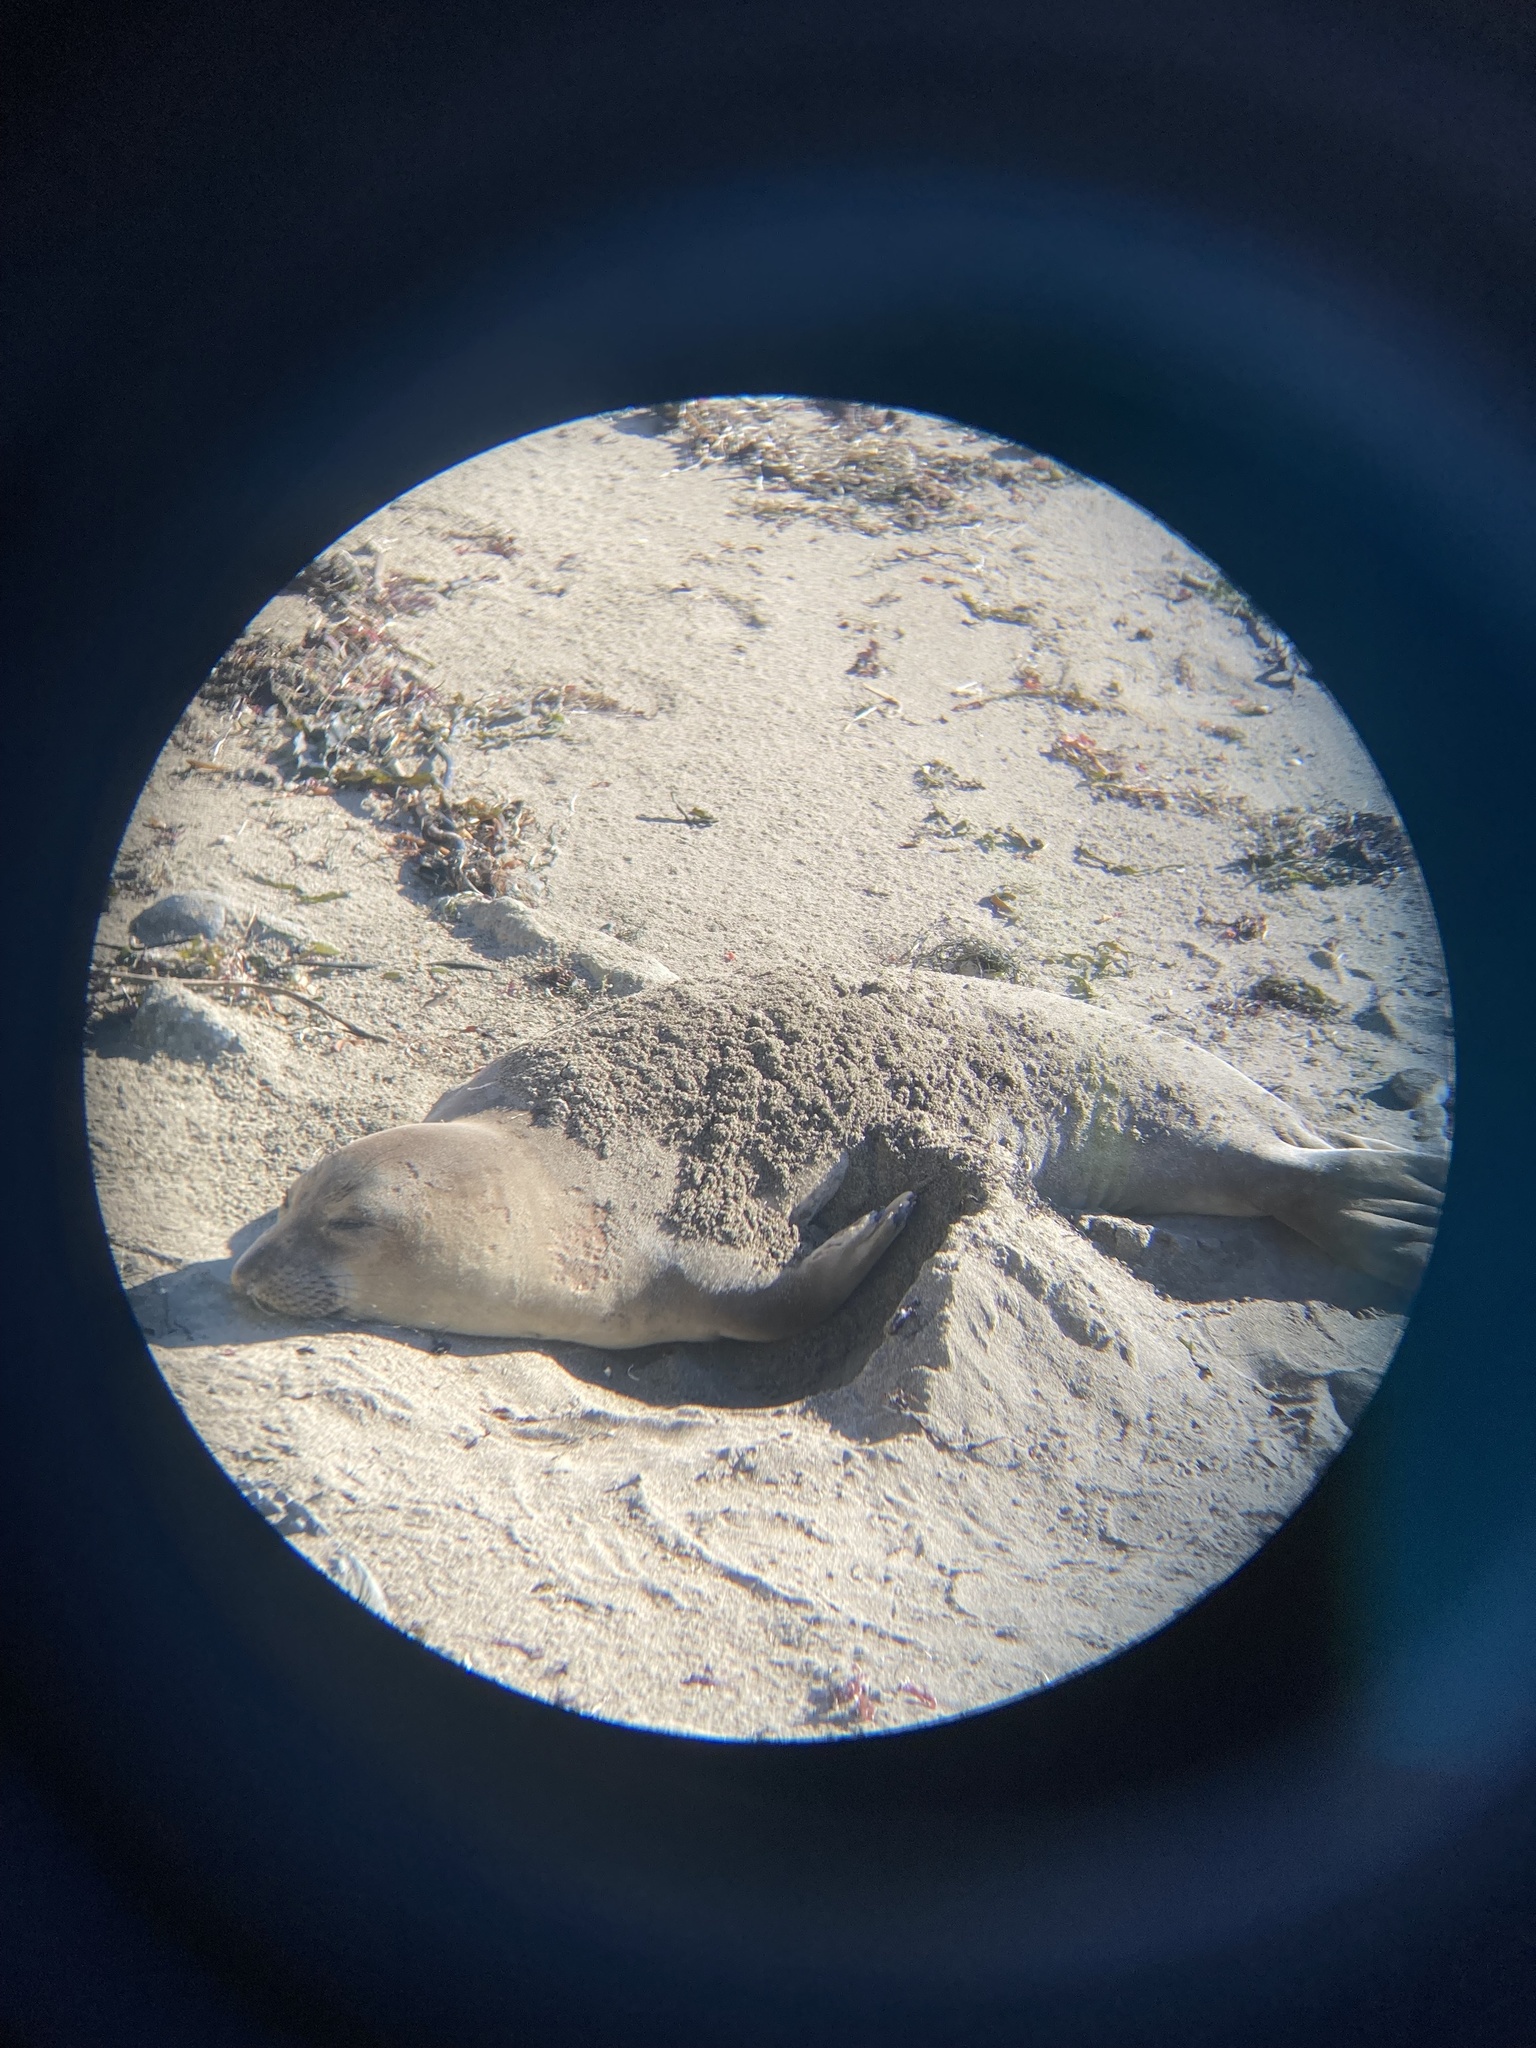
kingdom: Animalia
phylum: Chordata
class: Mammalia
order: Carnivora
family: Phocidae
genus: Mirounga
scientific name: Mirounga angustirostris
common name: Northern elephant seal
